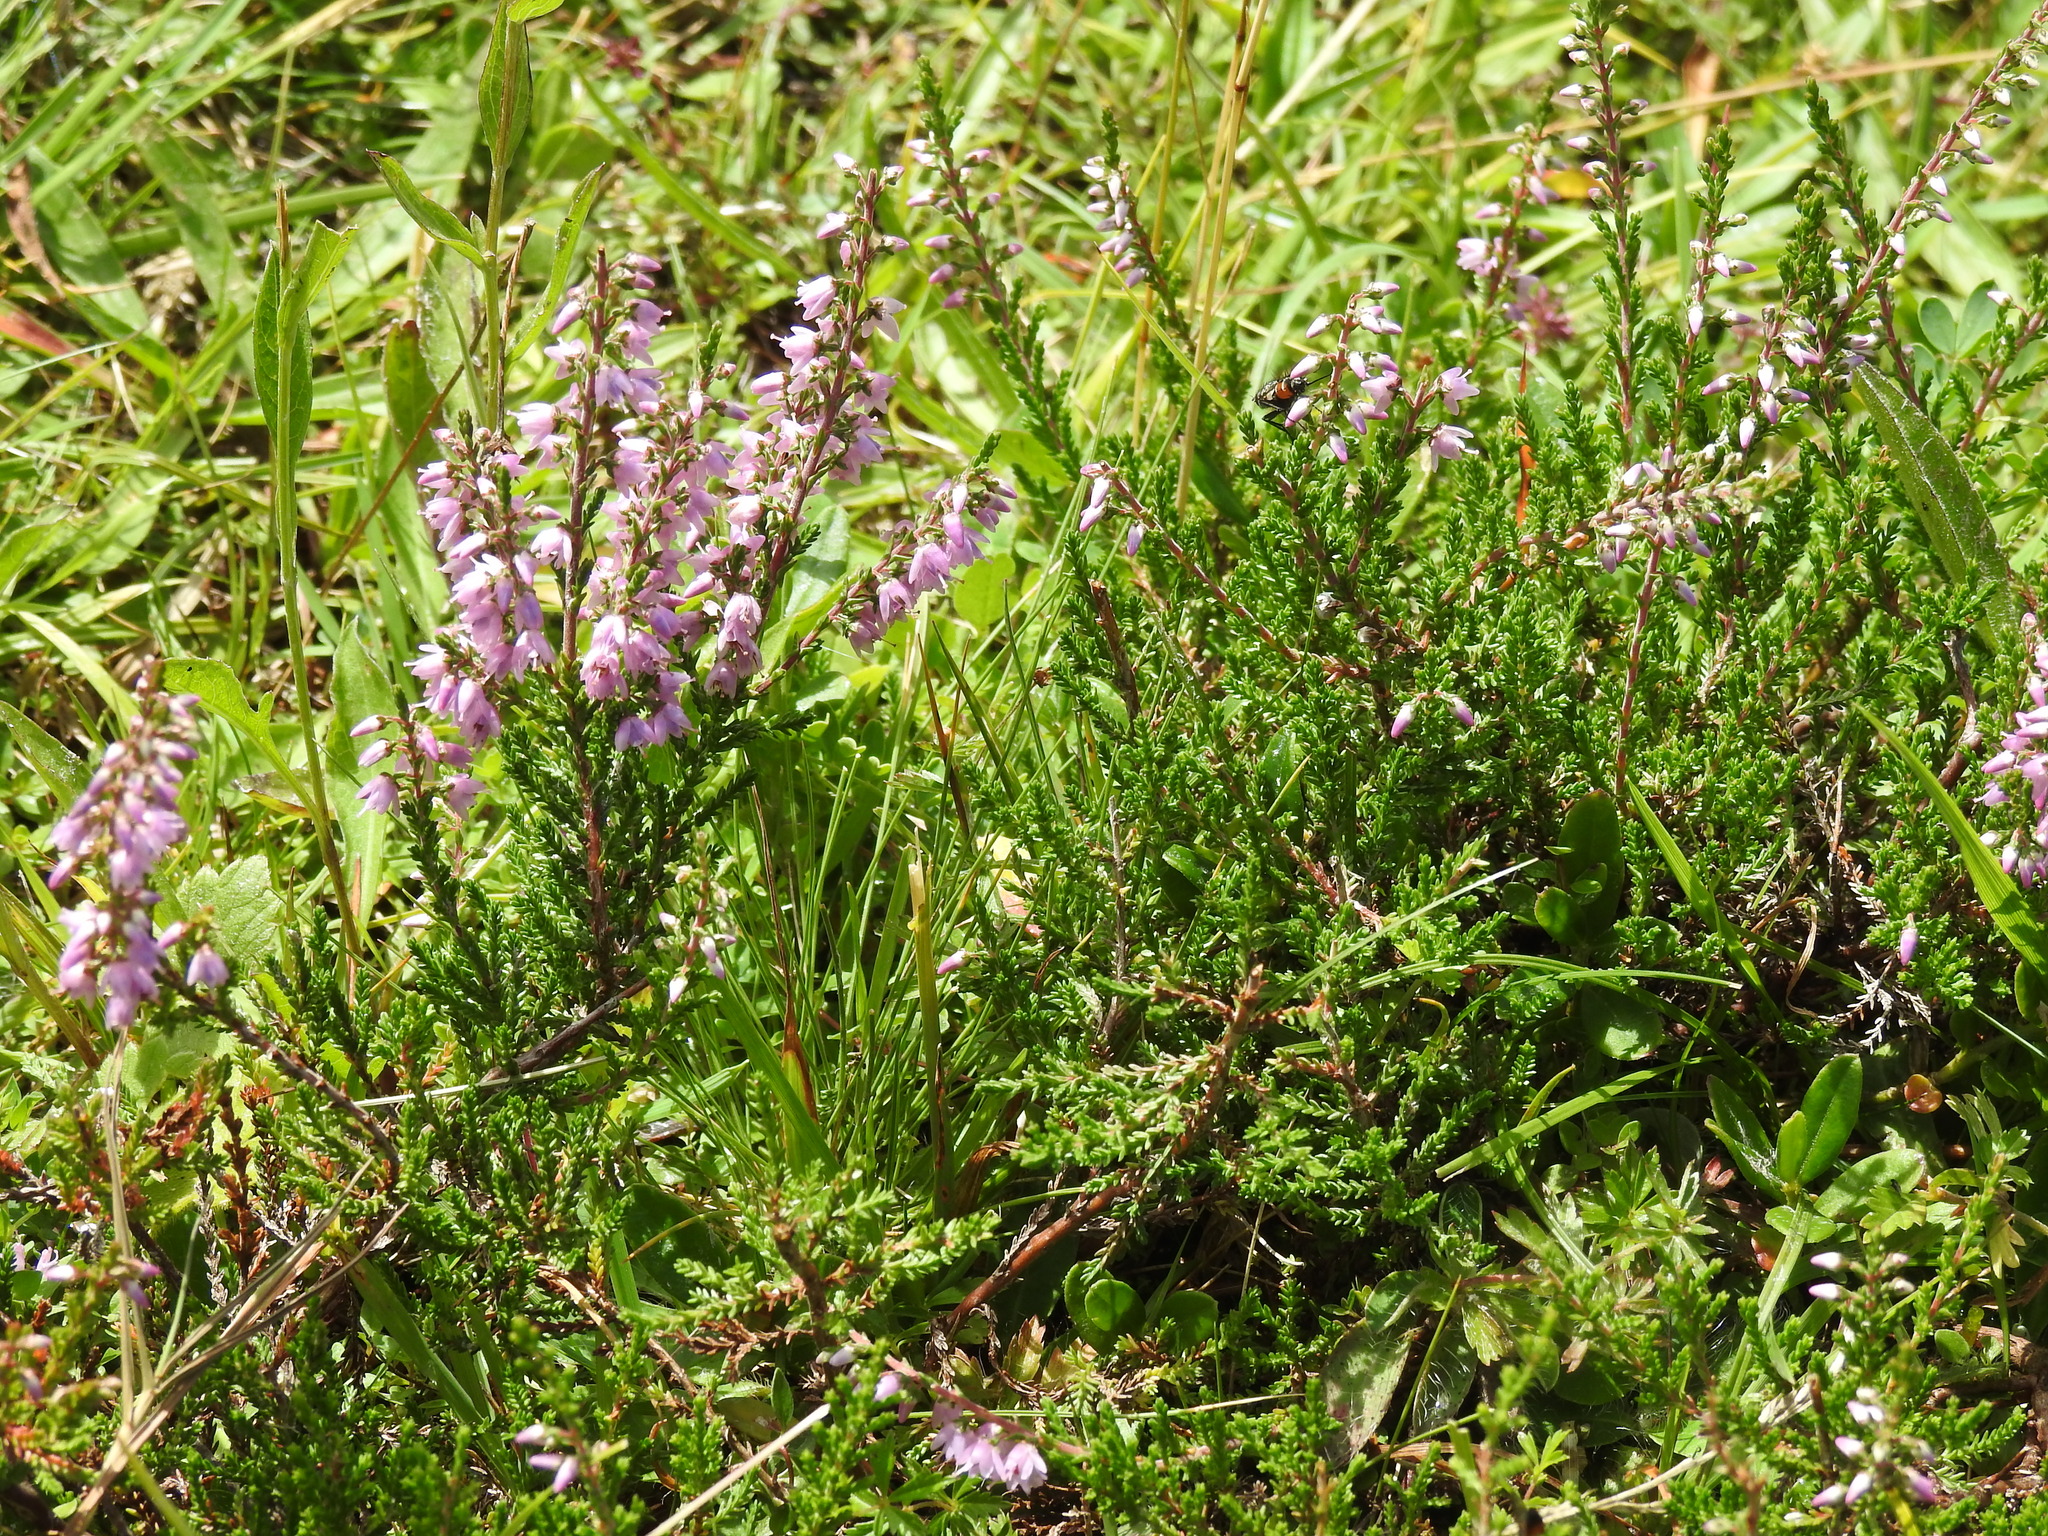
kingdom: Plantae
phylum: Tracheophyta
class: Magnoliopsida
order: Ericales
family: Ericaceae
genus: Calluna
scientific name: Calluna vulgaris
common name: Heather
